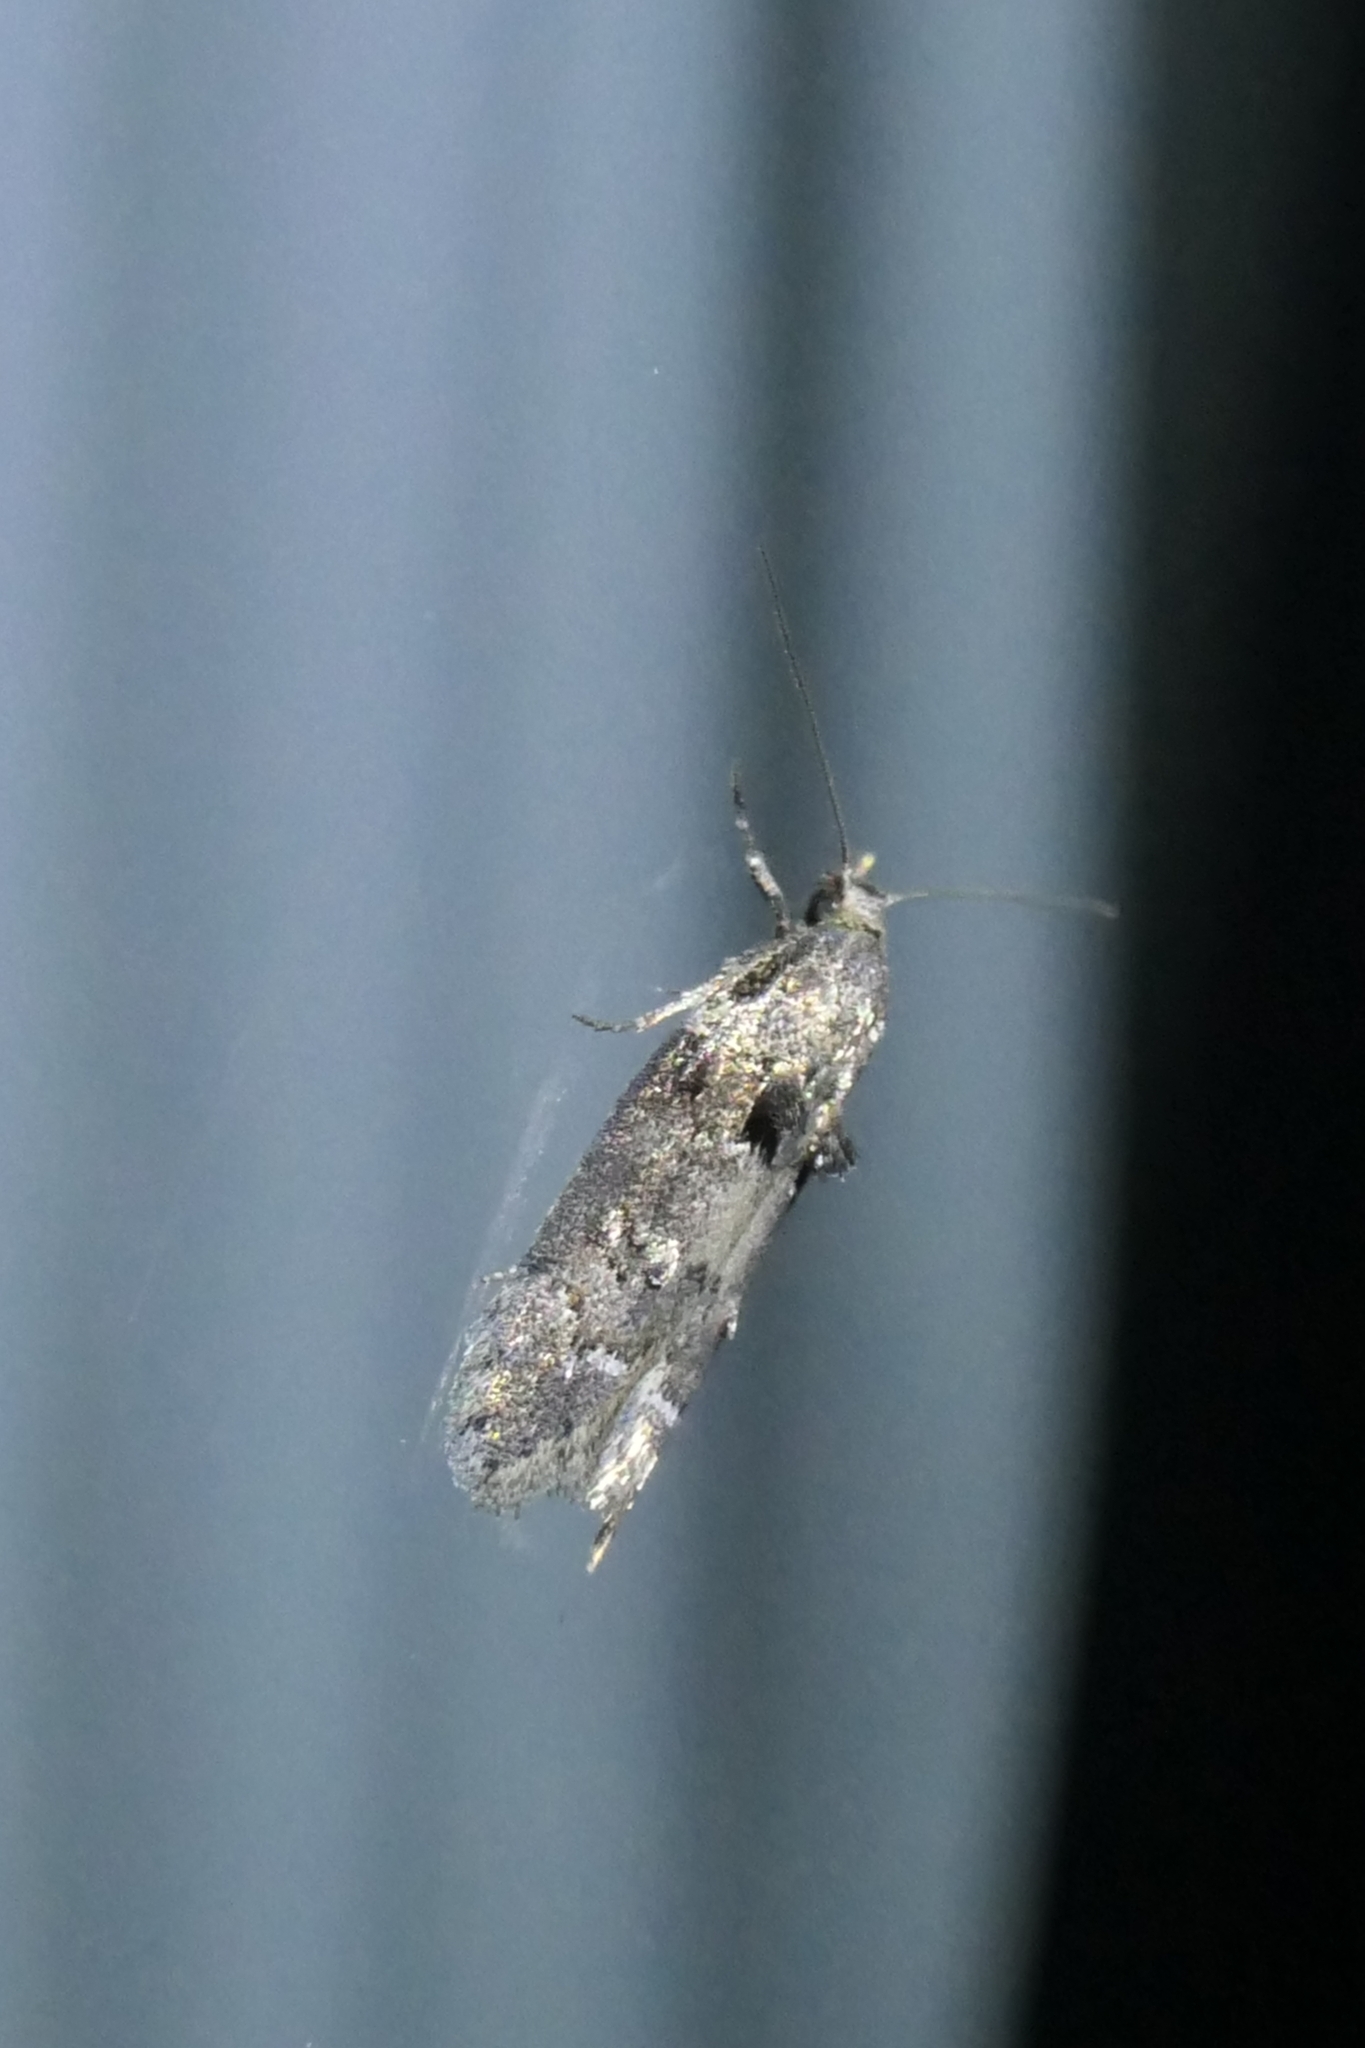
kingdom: Animalia
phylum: Arthropoda
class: Insecta
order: Lepidoptera
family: Oecophoridae
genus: Trachypepla
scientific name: Trachypepla conspicuella
